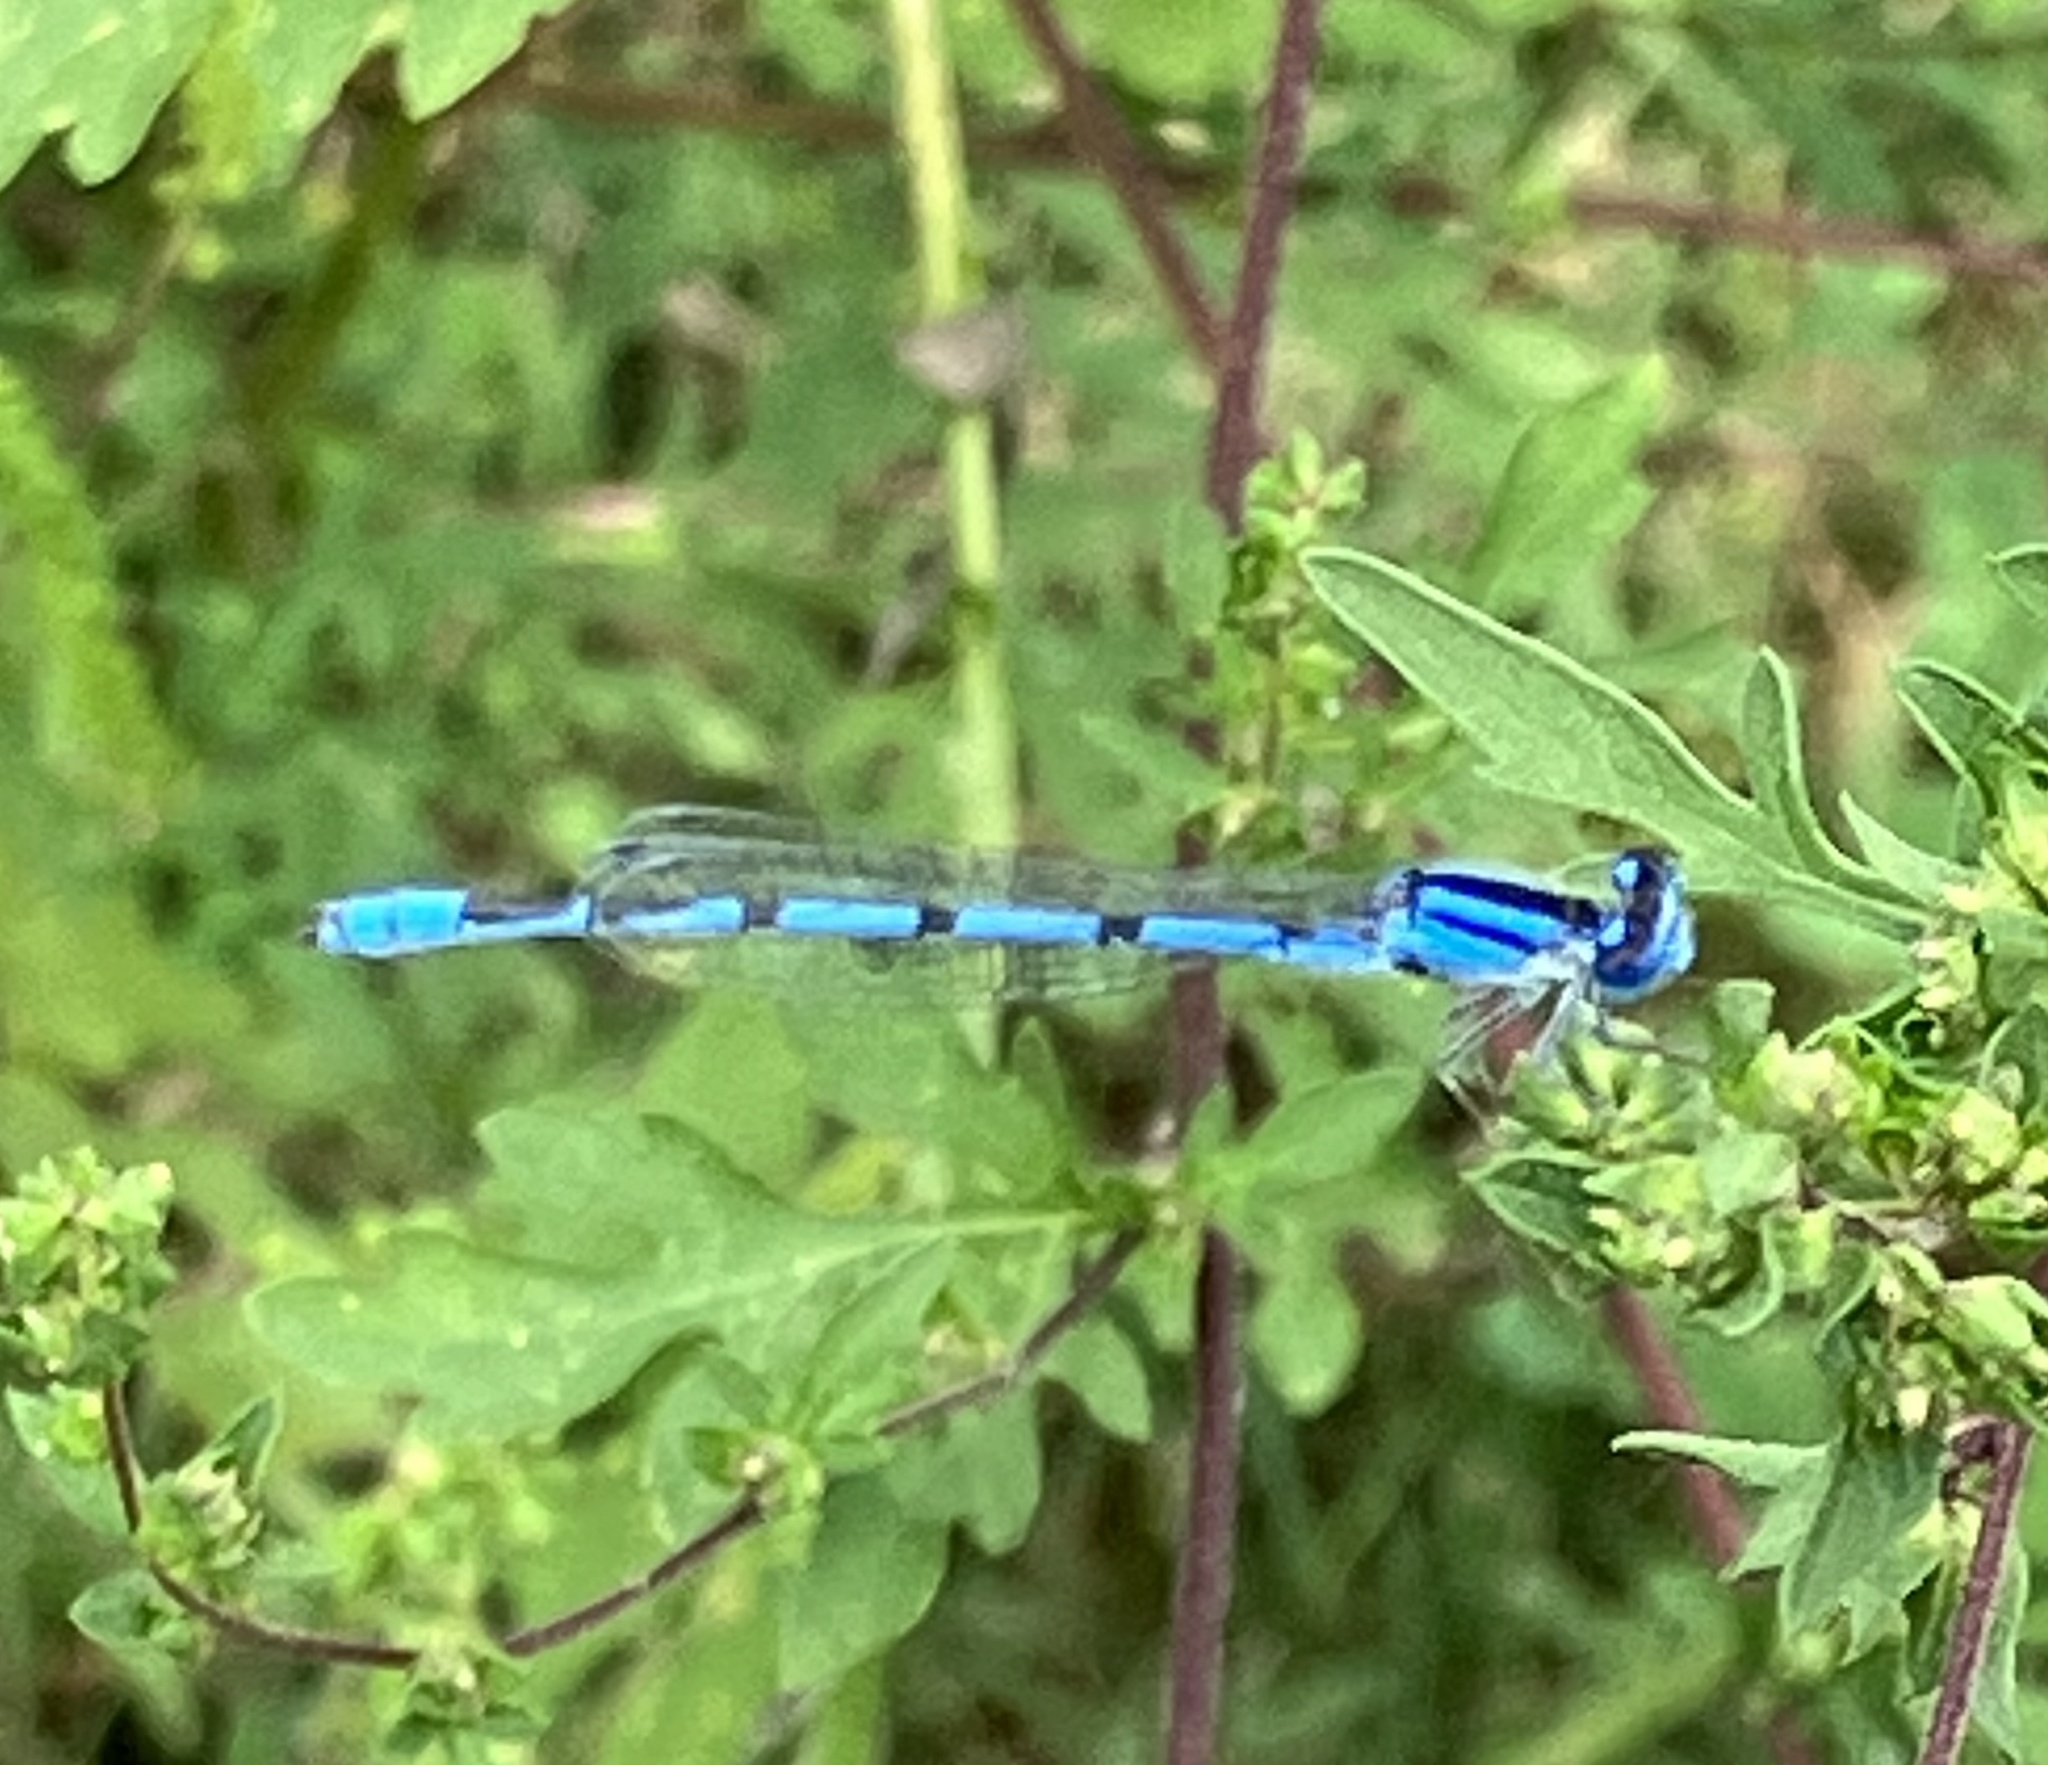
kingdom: Animalia
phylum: Arthropoda
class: Insecta
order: Odonata
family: Coenagrionidae
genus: Enallagma
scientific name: Enallagma civile
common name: Damselfly
